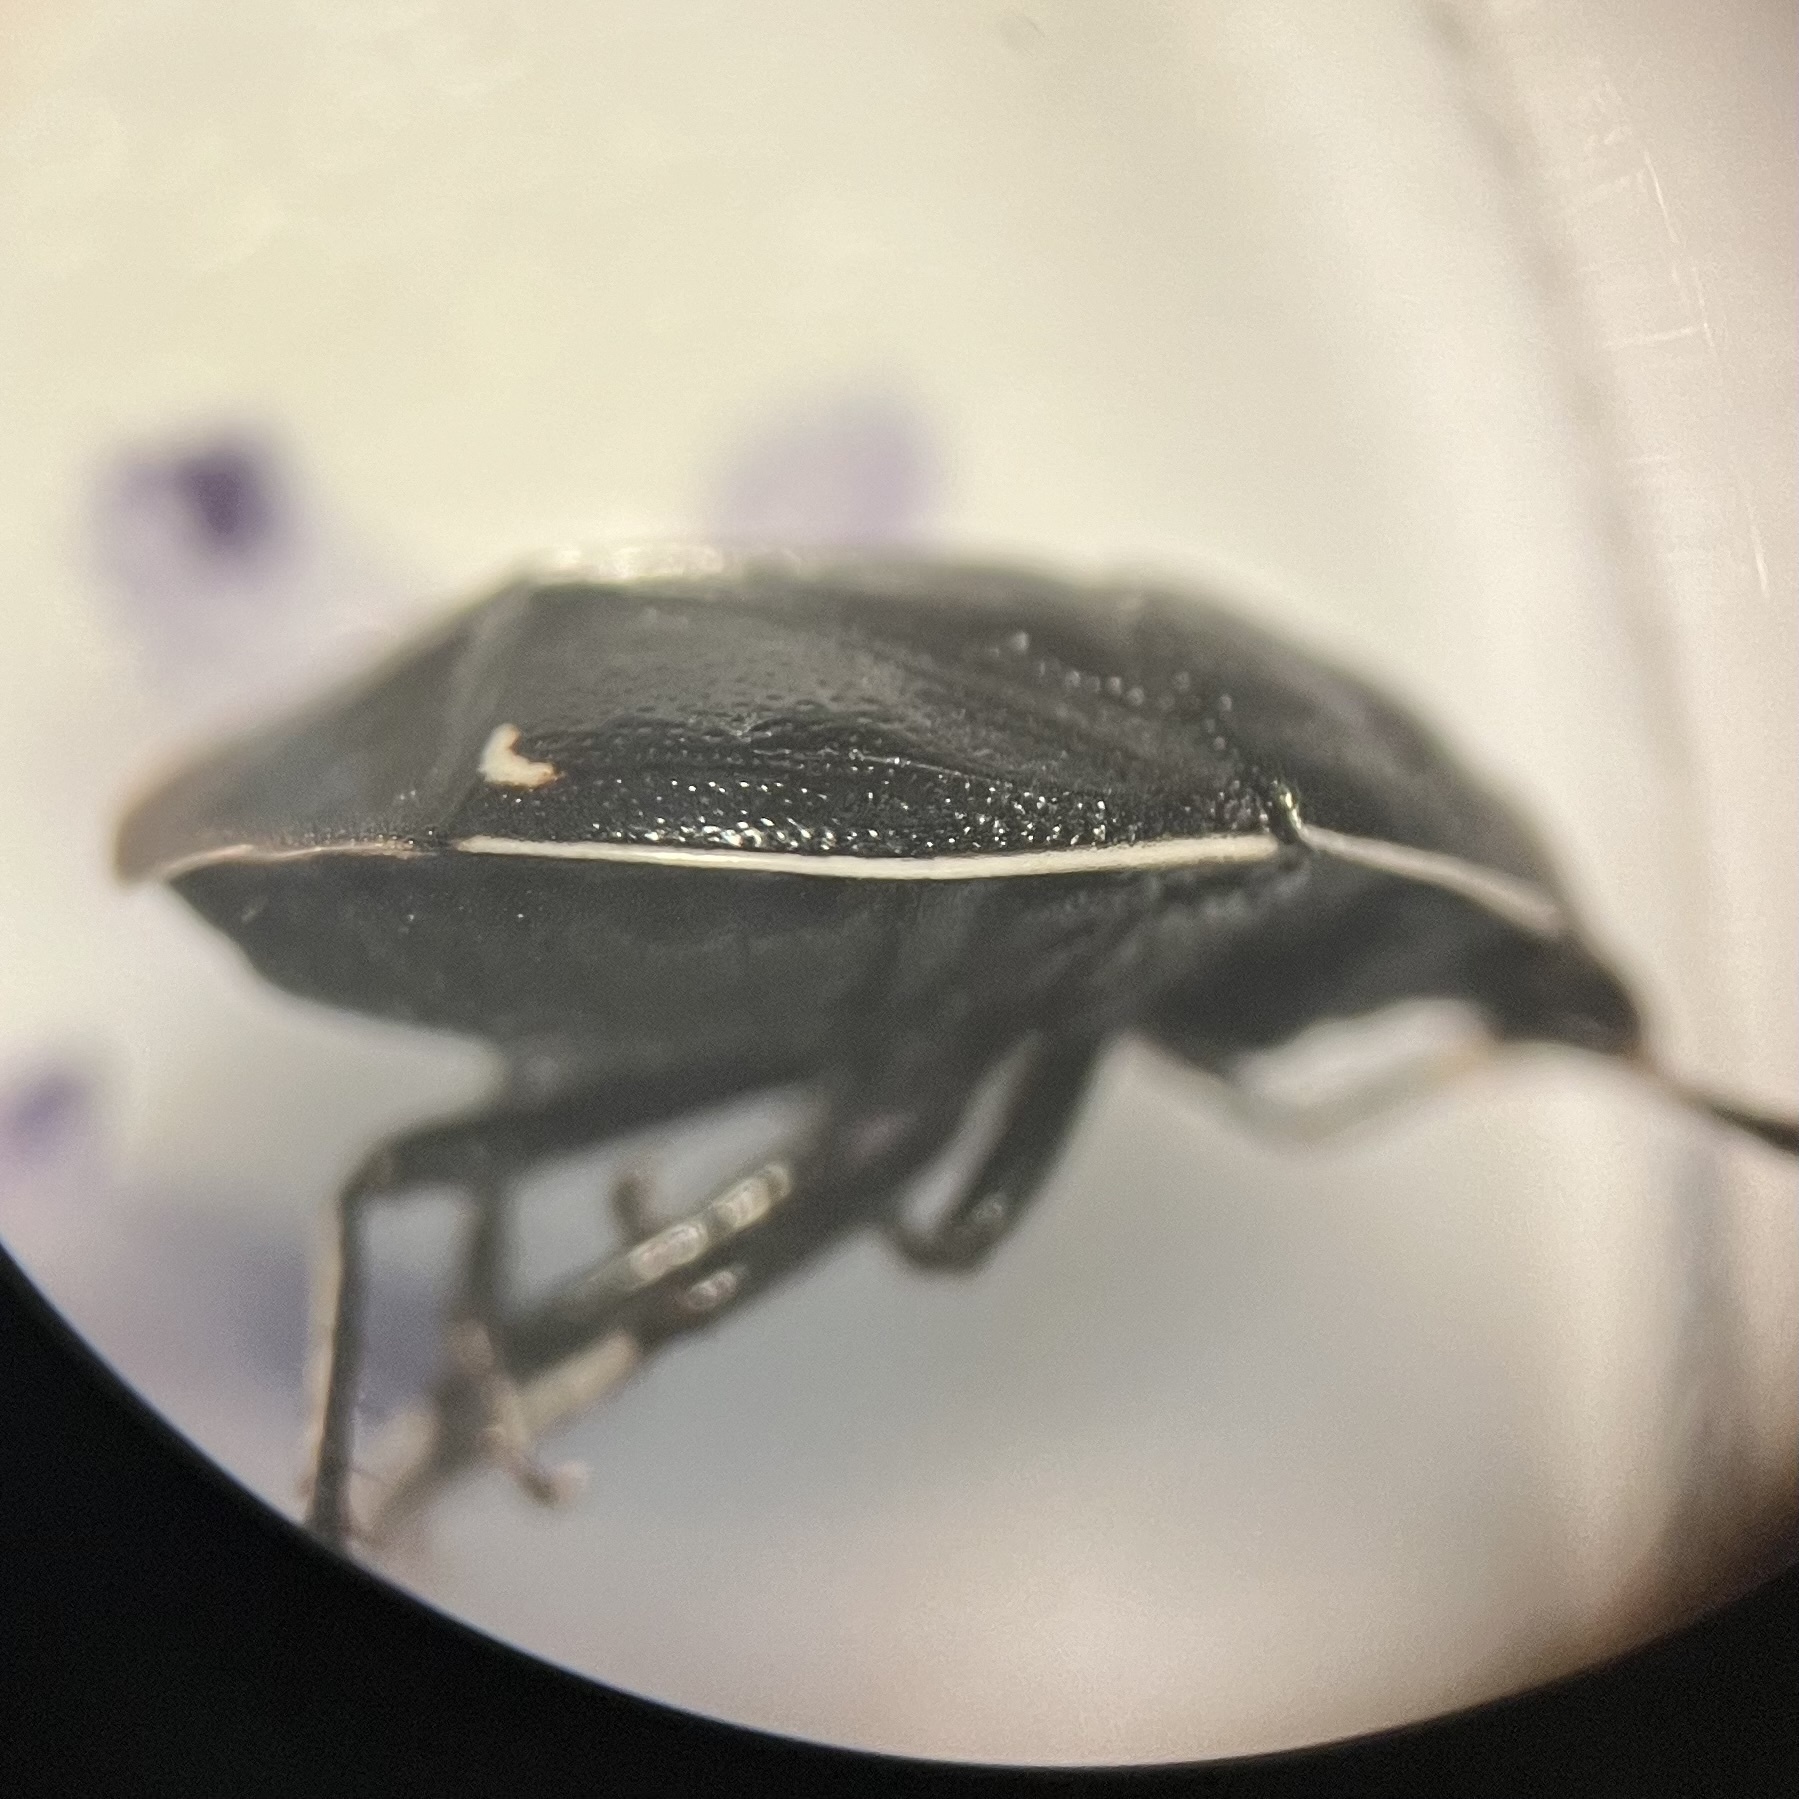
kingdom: Animalia
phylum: Arthropoda
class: Insecta
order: Hemiptera
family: Cydnidae
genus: Sehirus
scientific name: Sehirus cinctus
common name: White-margined burrower bug
